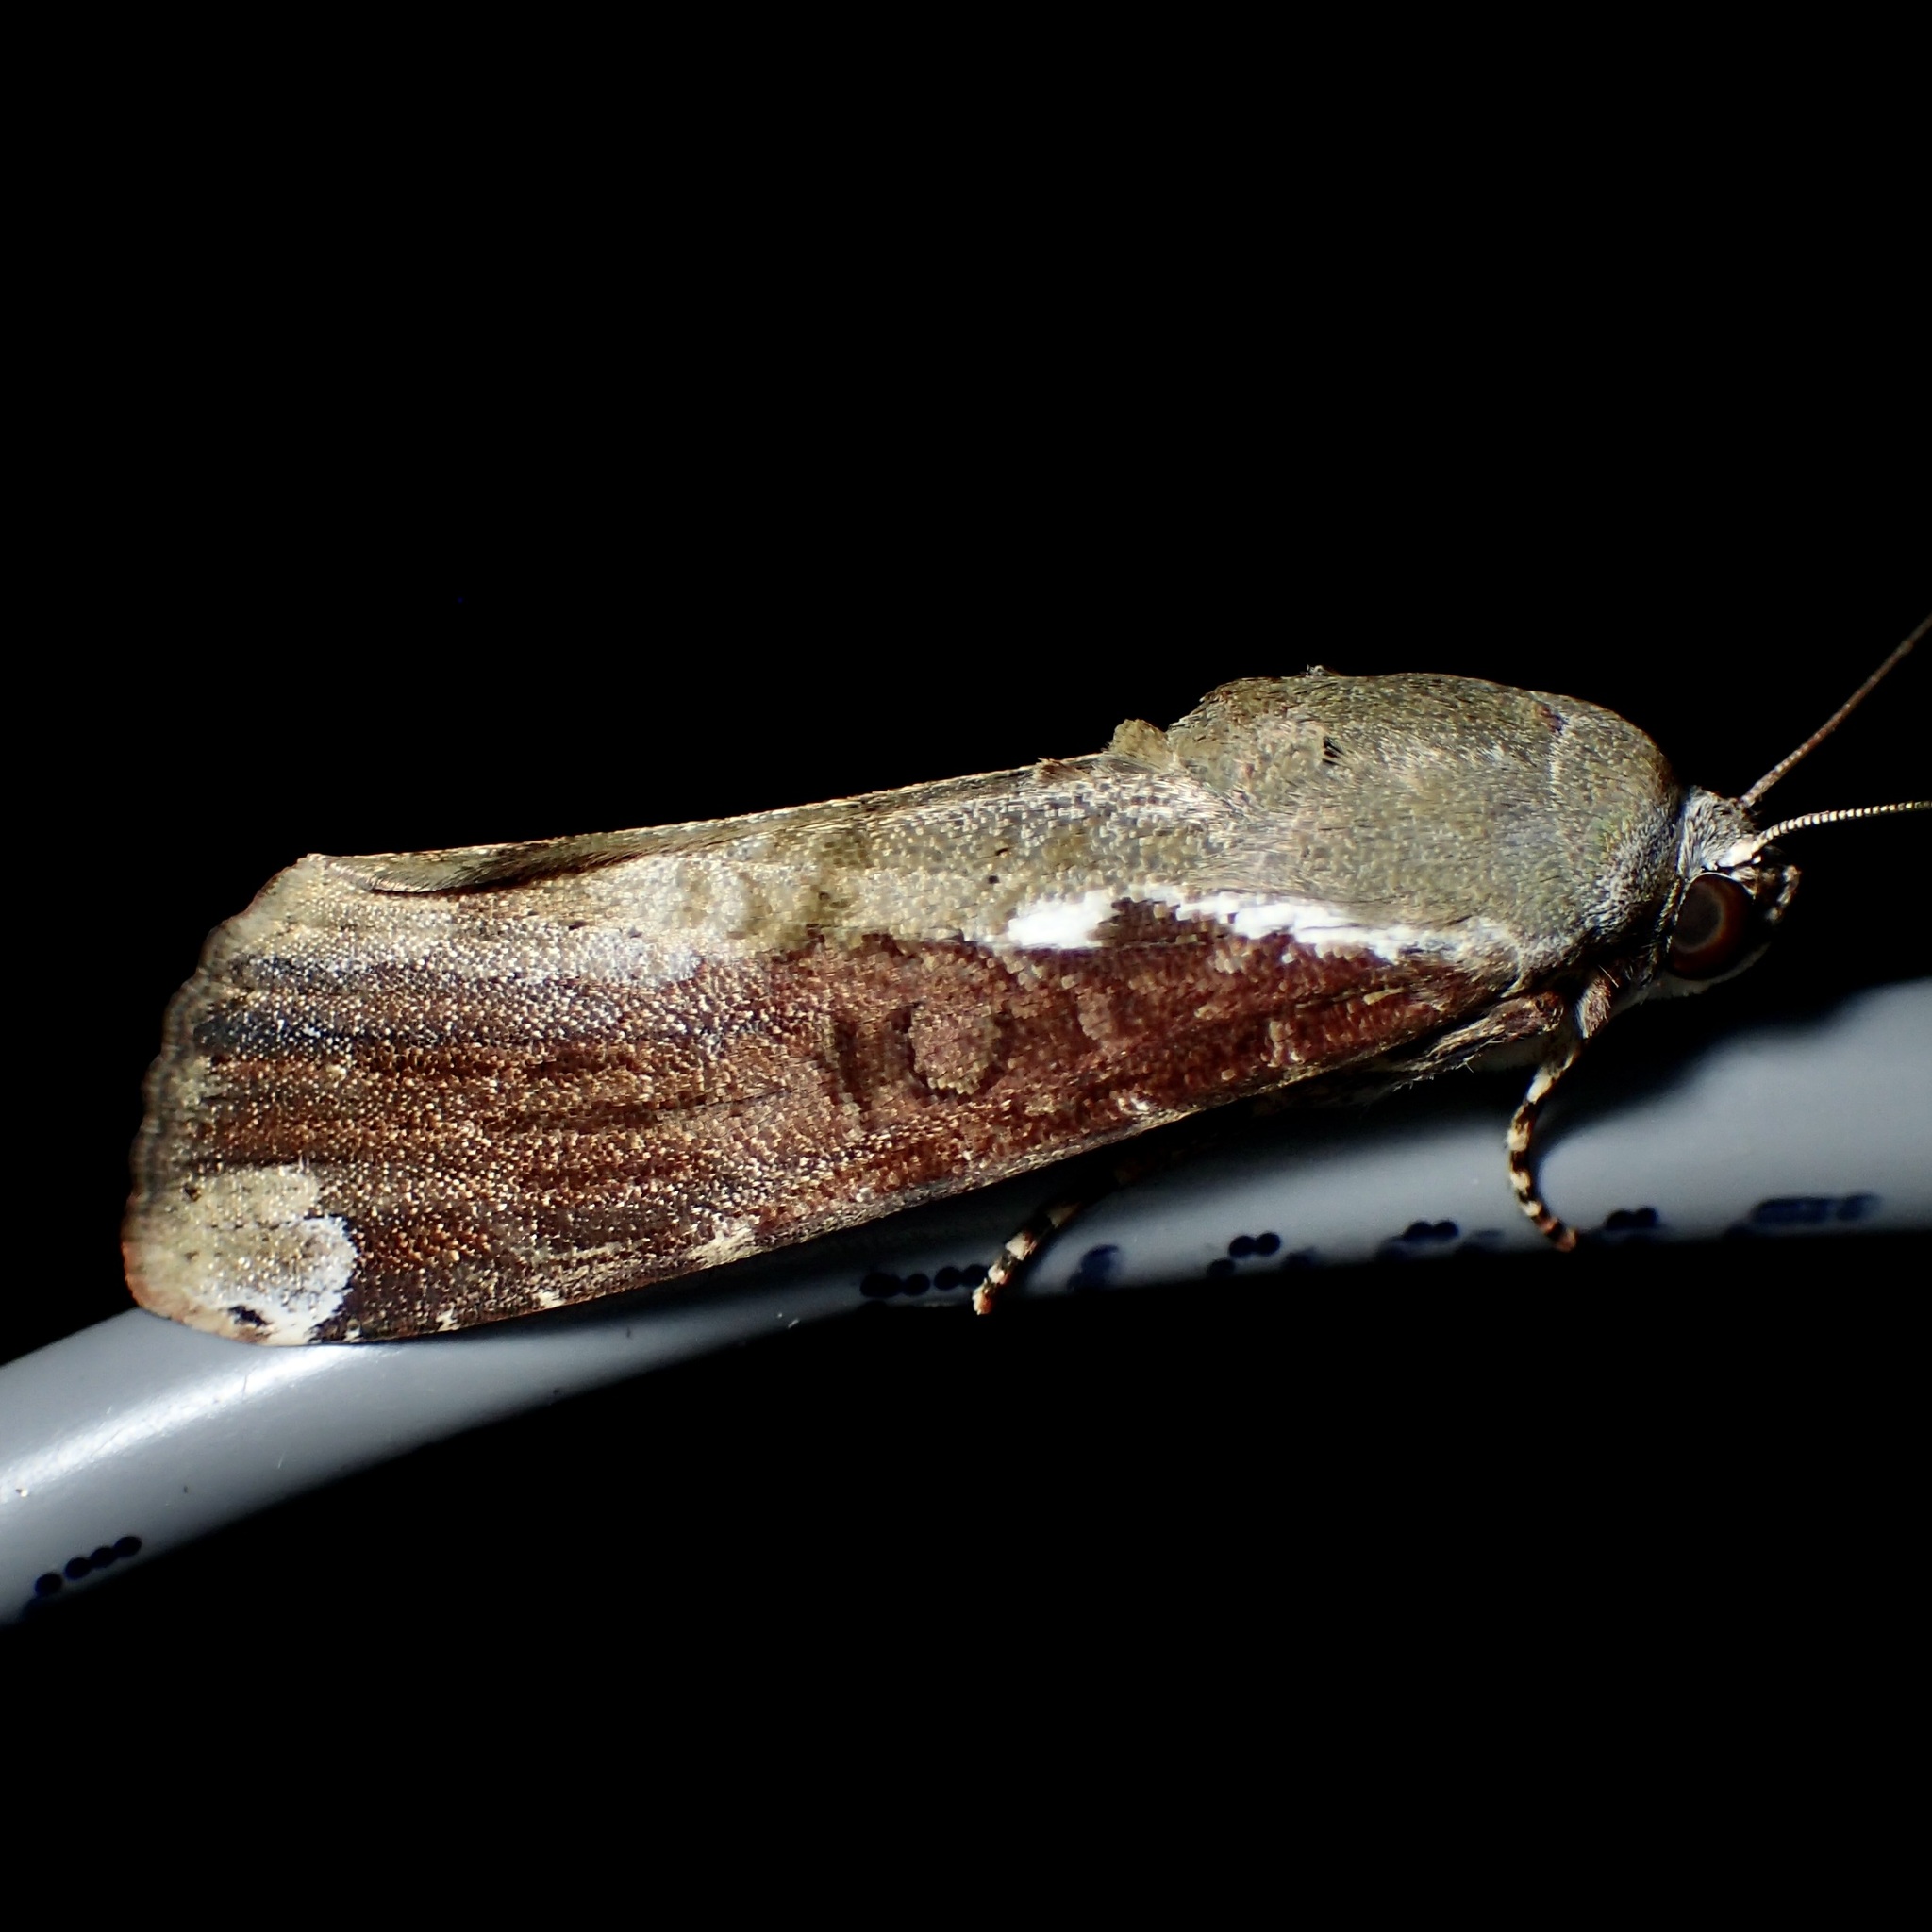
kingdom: Animalia
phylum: Arthropoda
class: Insecta
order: Lepidoptera
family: Noctuidae
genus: Magusa
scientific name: Magusa divaricata
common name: Orb narrow-winged moth
